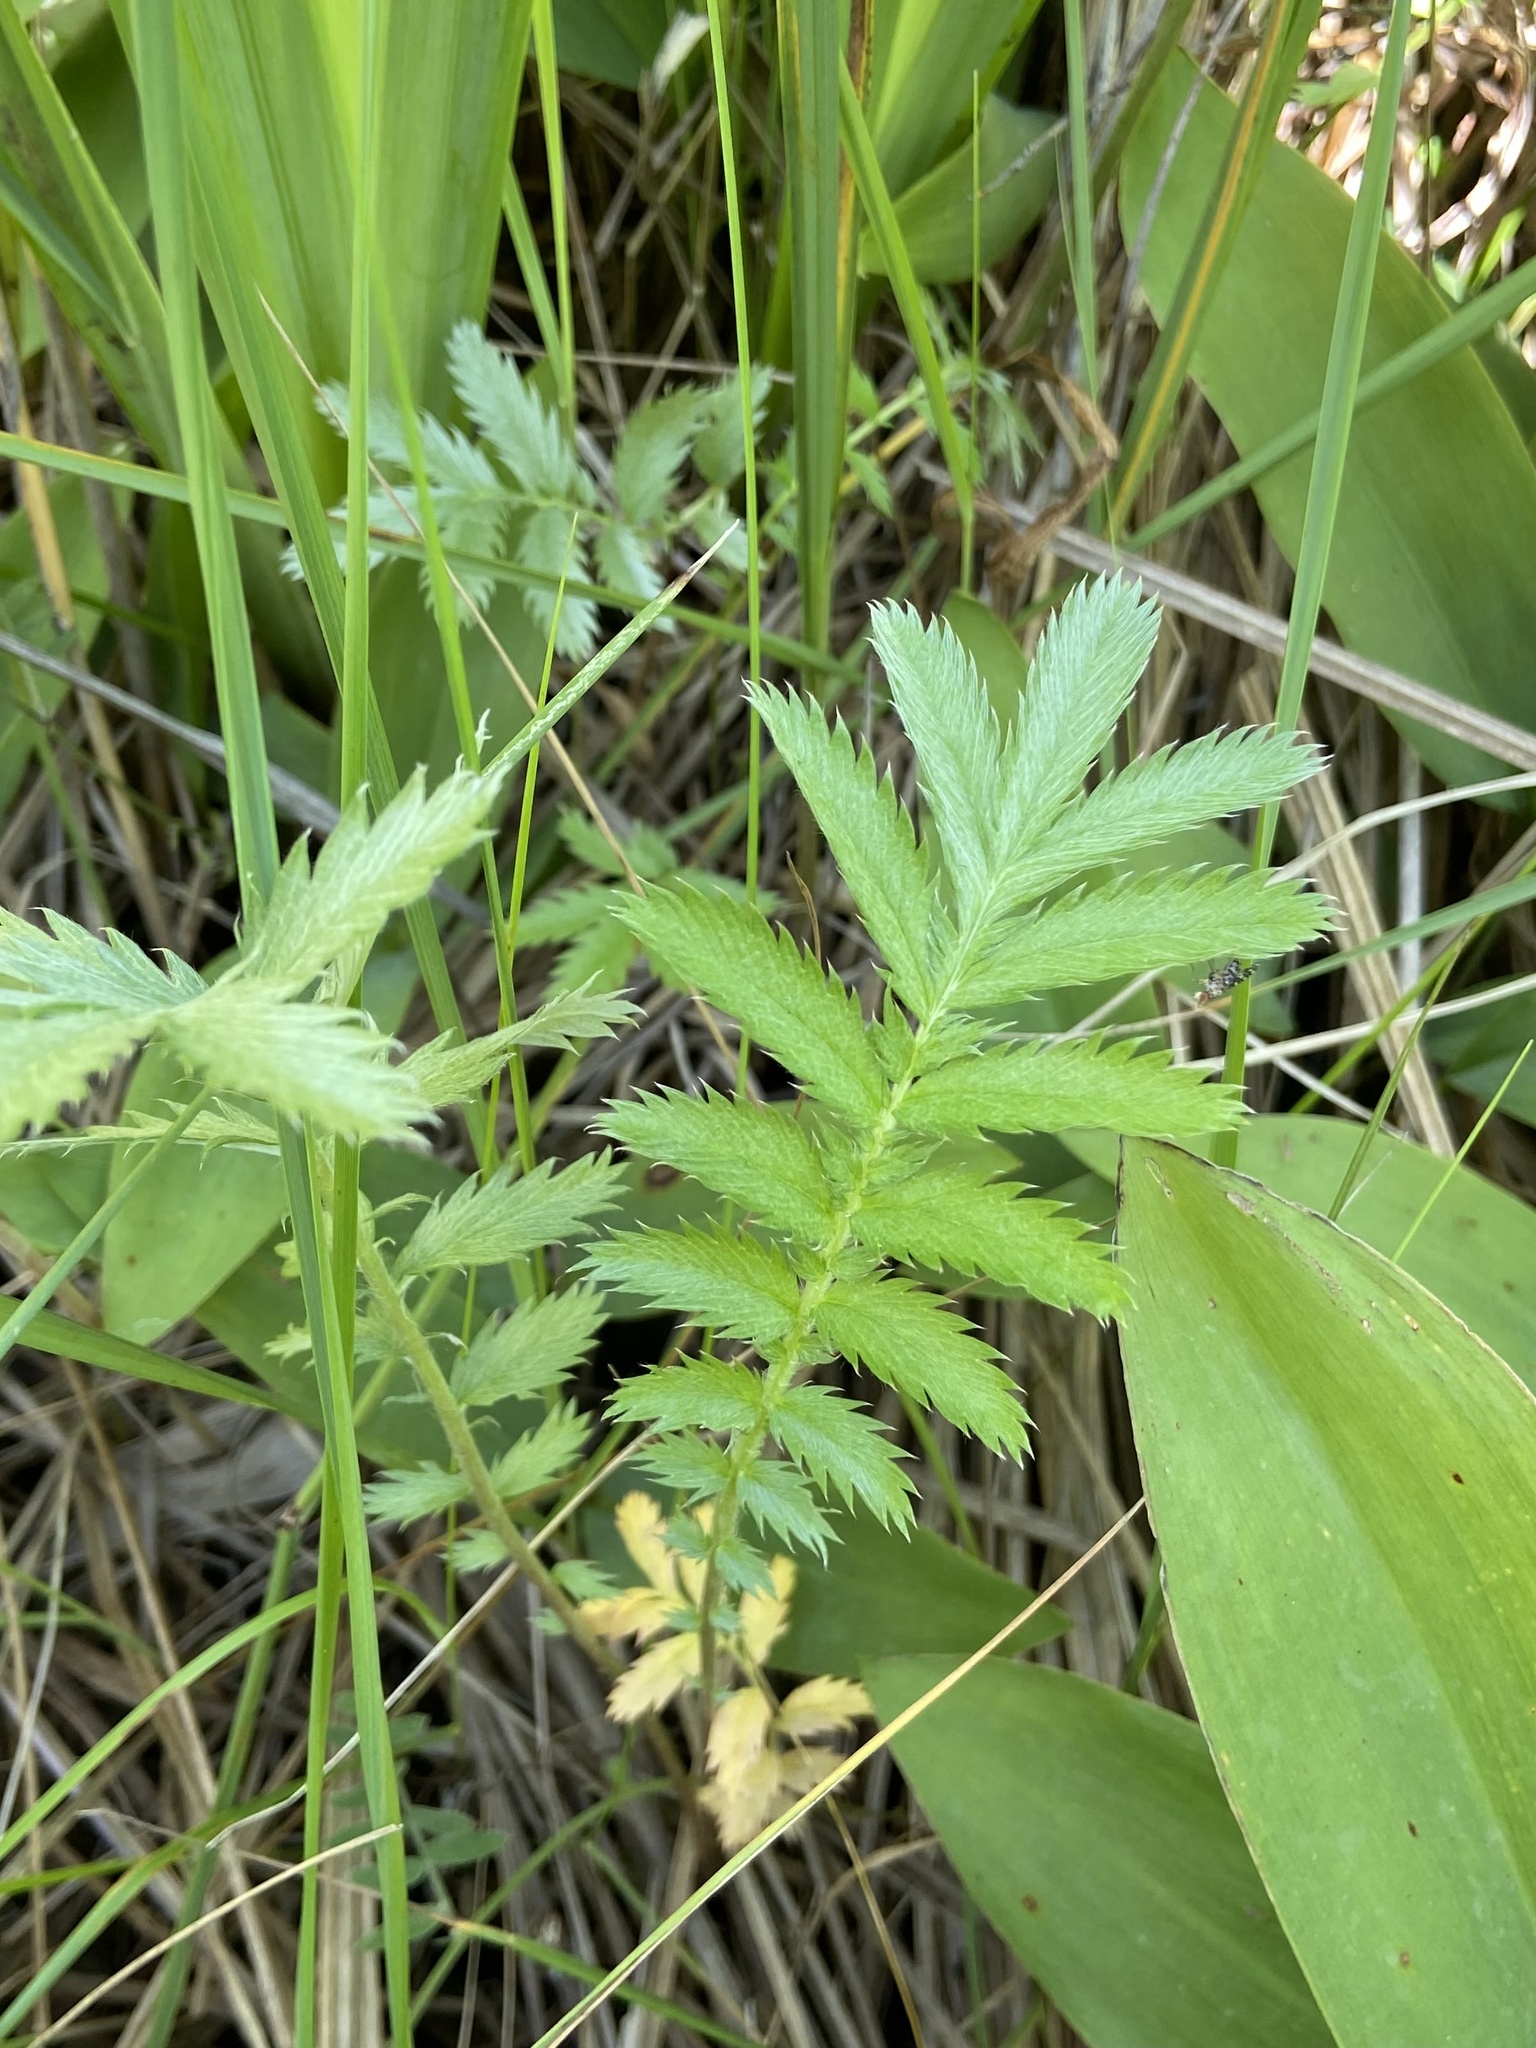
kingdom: Plantae
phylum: Tracheophyta
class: Magnoliopsida
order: Rosales
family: Rosaceae
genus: Argentina
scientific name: Argentina anserina
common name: Common silverweed
